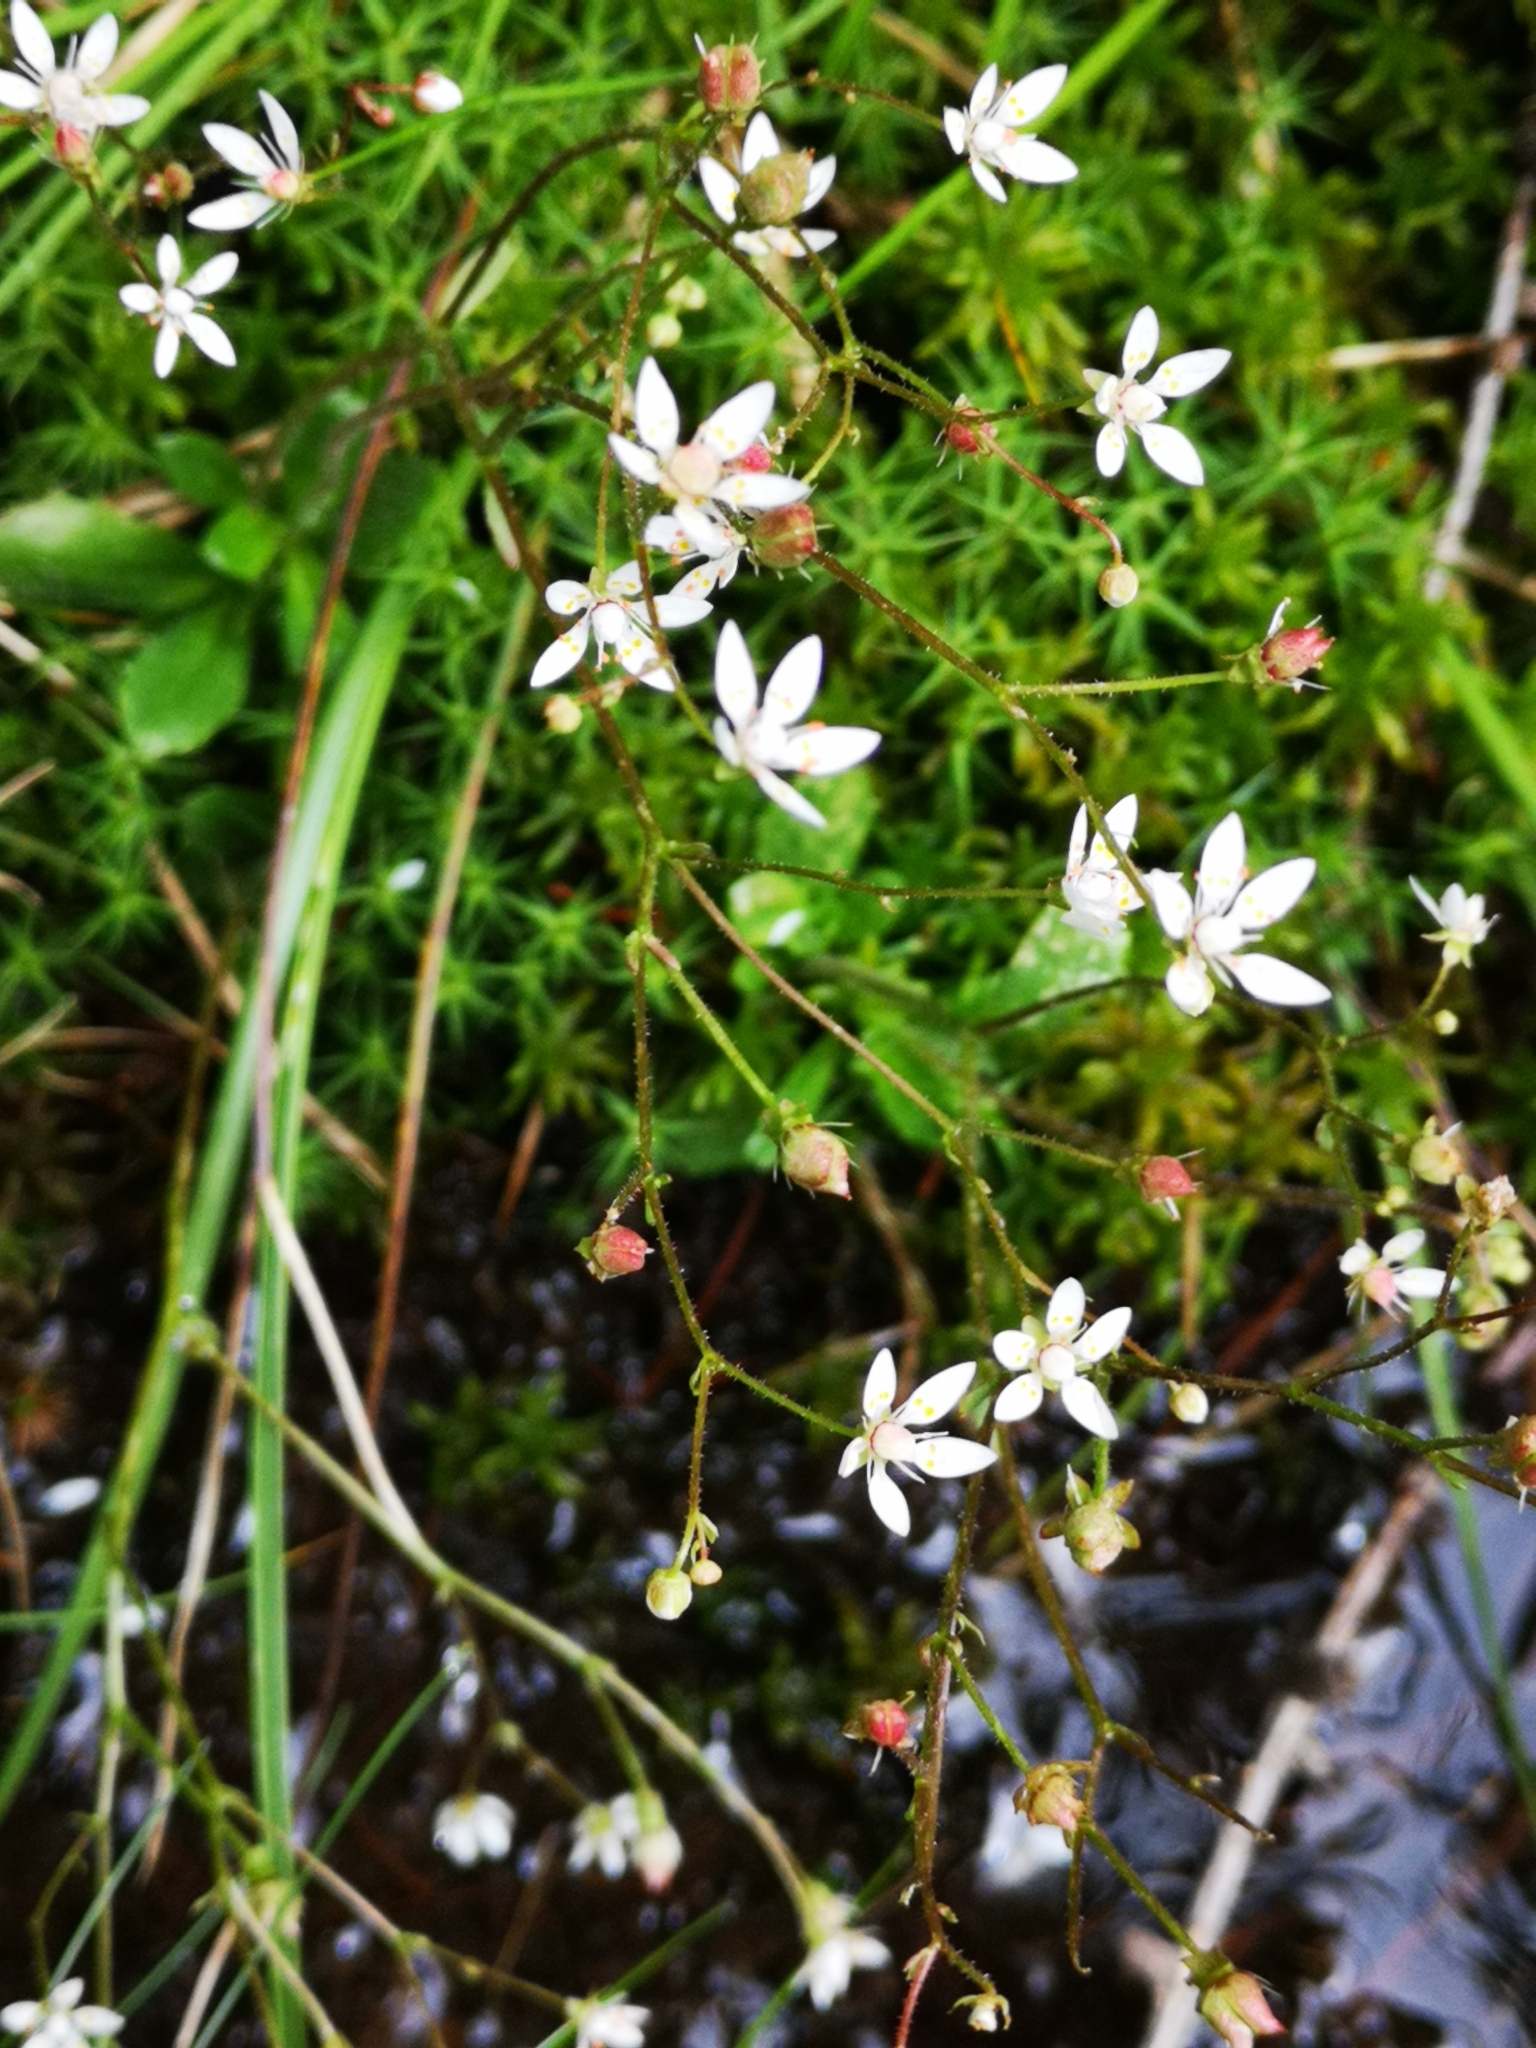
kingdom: Plantae
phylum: Tracheophyta
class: Magnoliopsida
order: Saxifragales
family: Saxifragaceae
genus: Micranthes
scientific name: Micranthes stellaris
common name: Starry saxifrage
